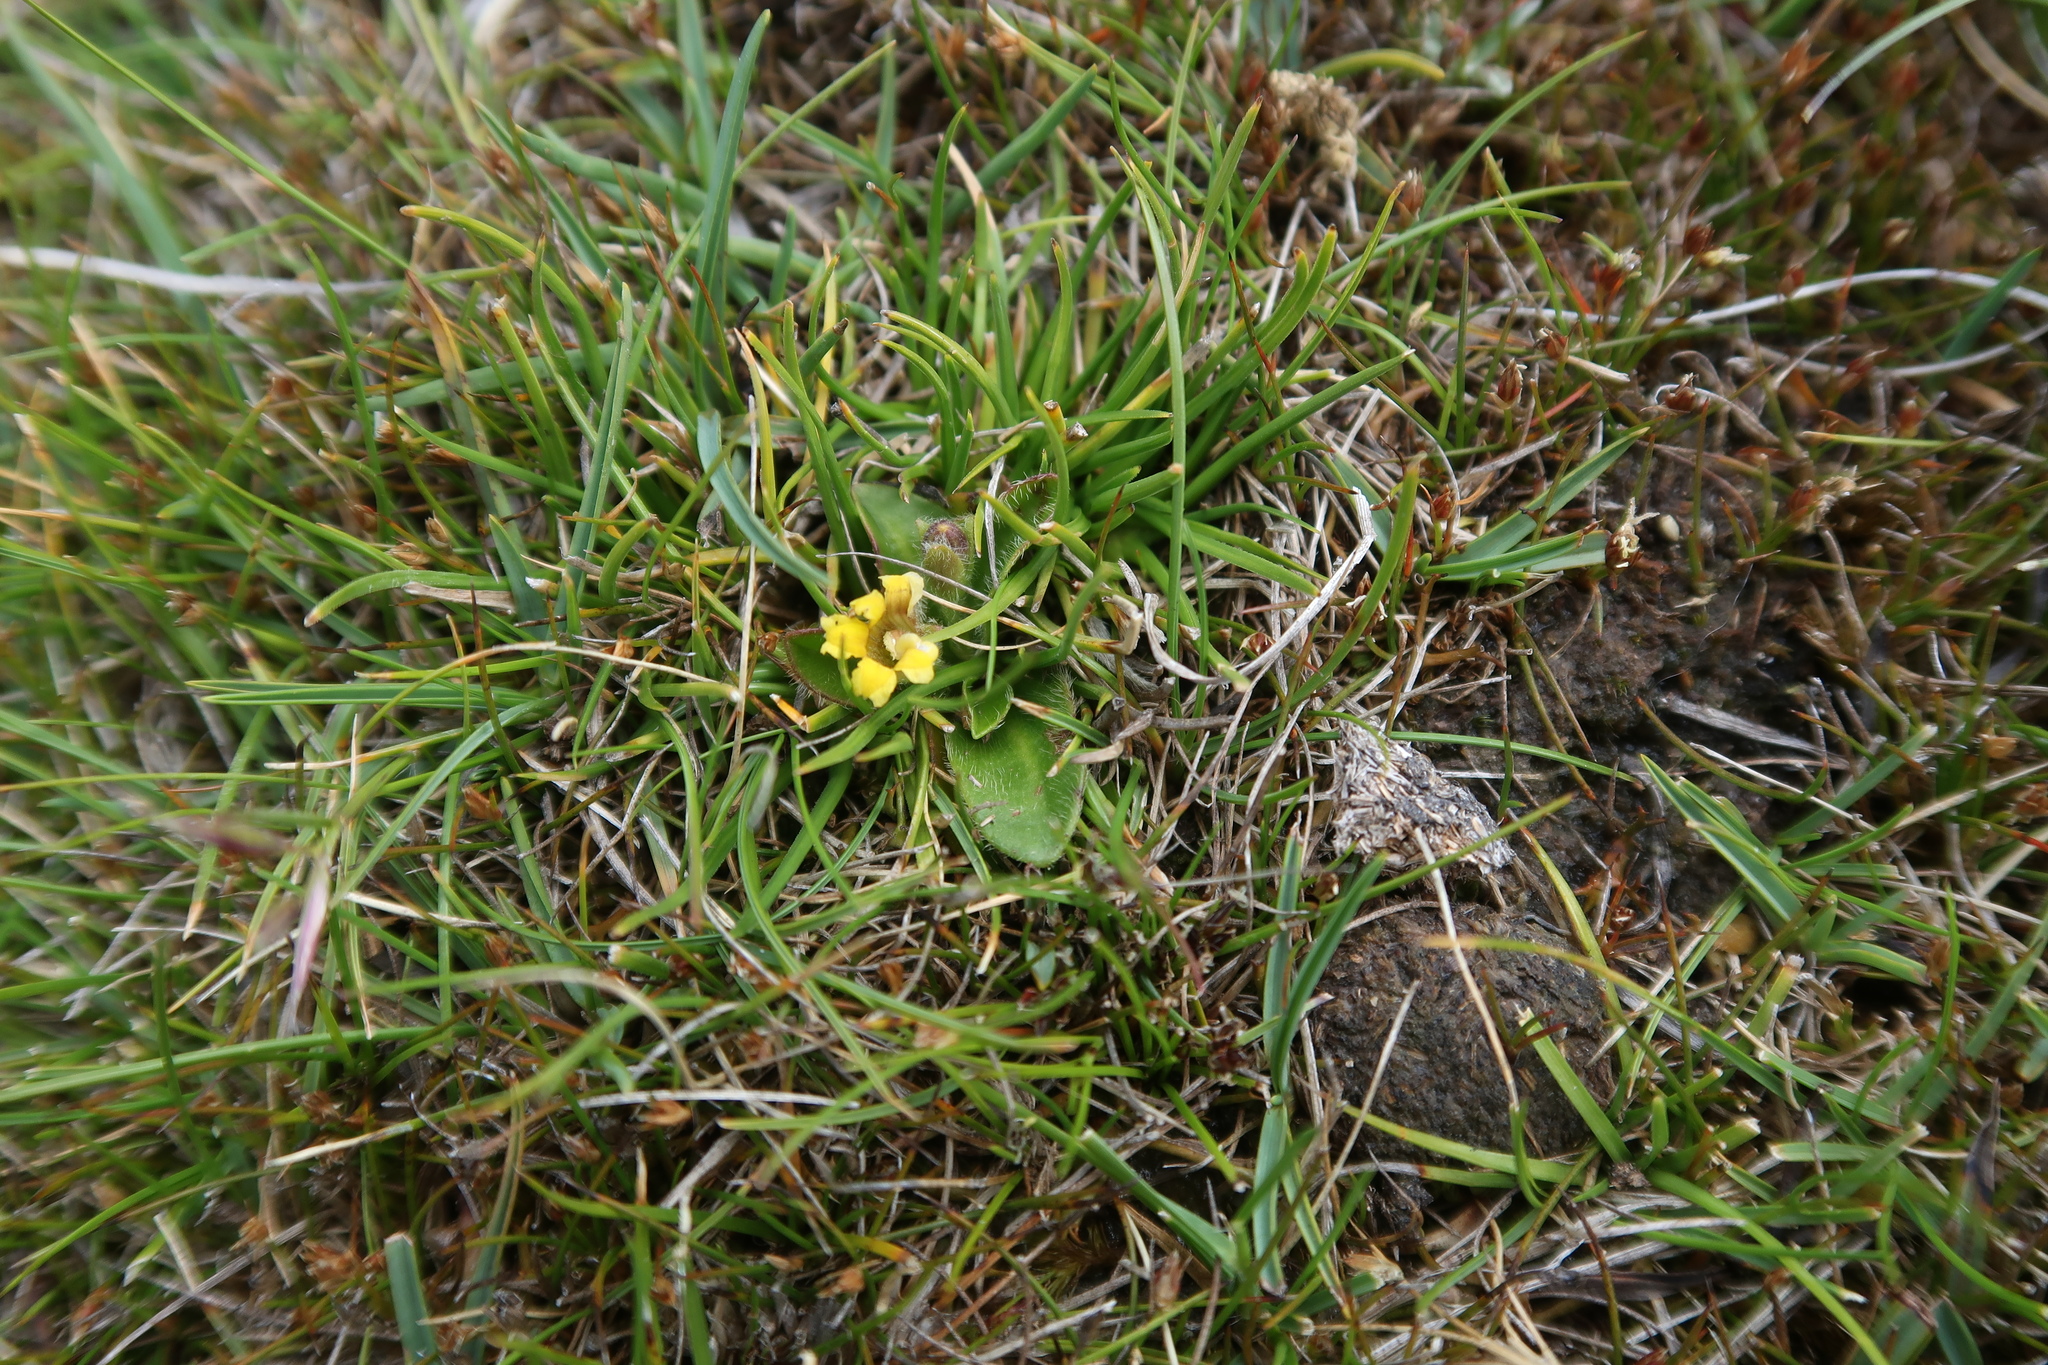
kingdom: Plantae
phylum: Tracheophyta
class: Magnoliopsida
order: Asterales
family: Goodeniaceae
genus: Goodenia
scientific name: Goodenia montana
